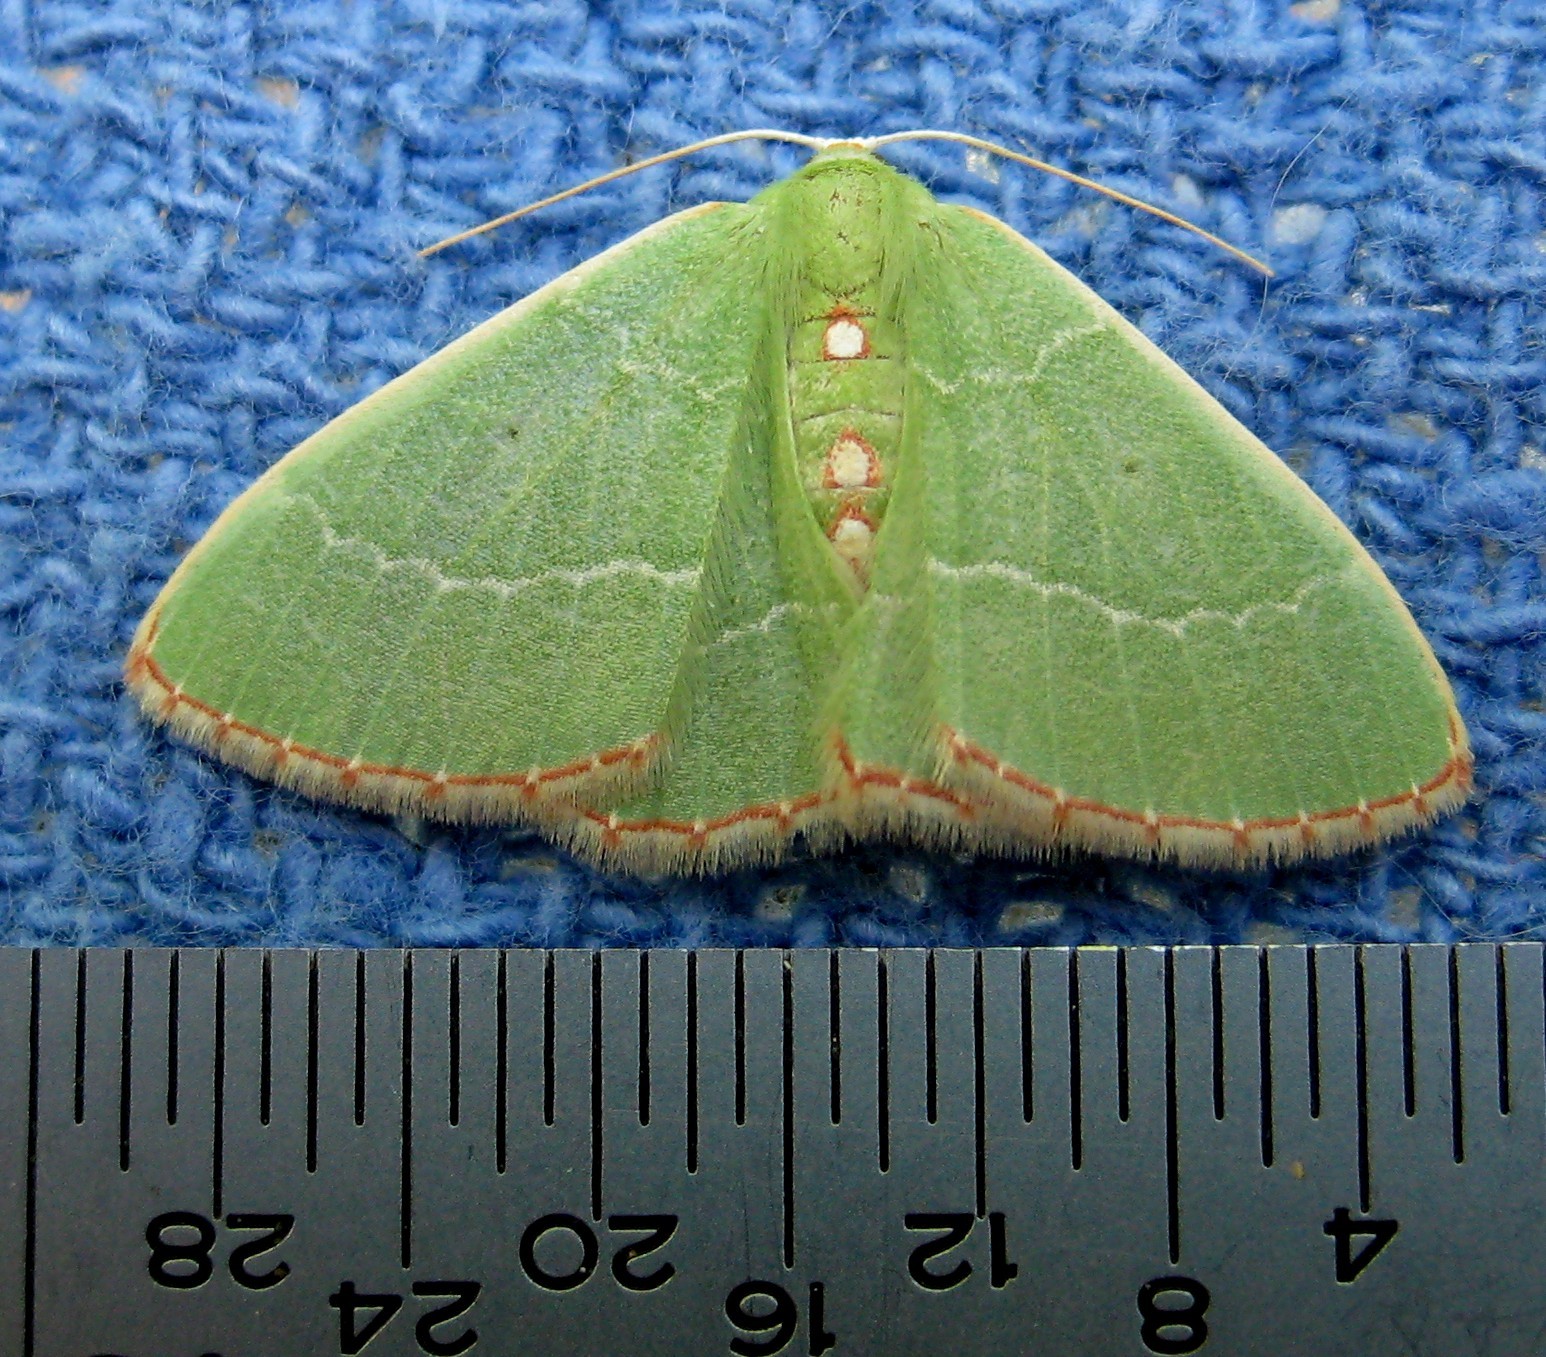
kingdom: Animalia
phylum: Arthropoda
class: Insecta
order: Lepidoptera
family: Geometridae
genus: Nemoria
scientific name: Nemoria bistriaria
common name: Red-fringed emerald
